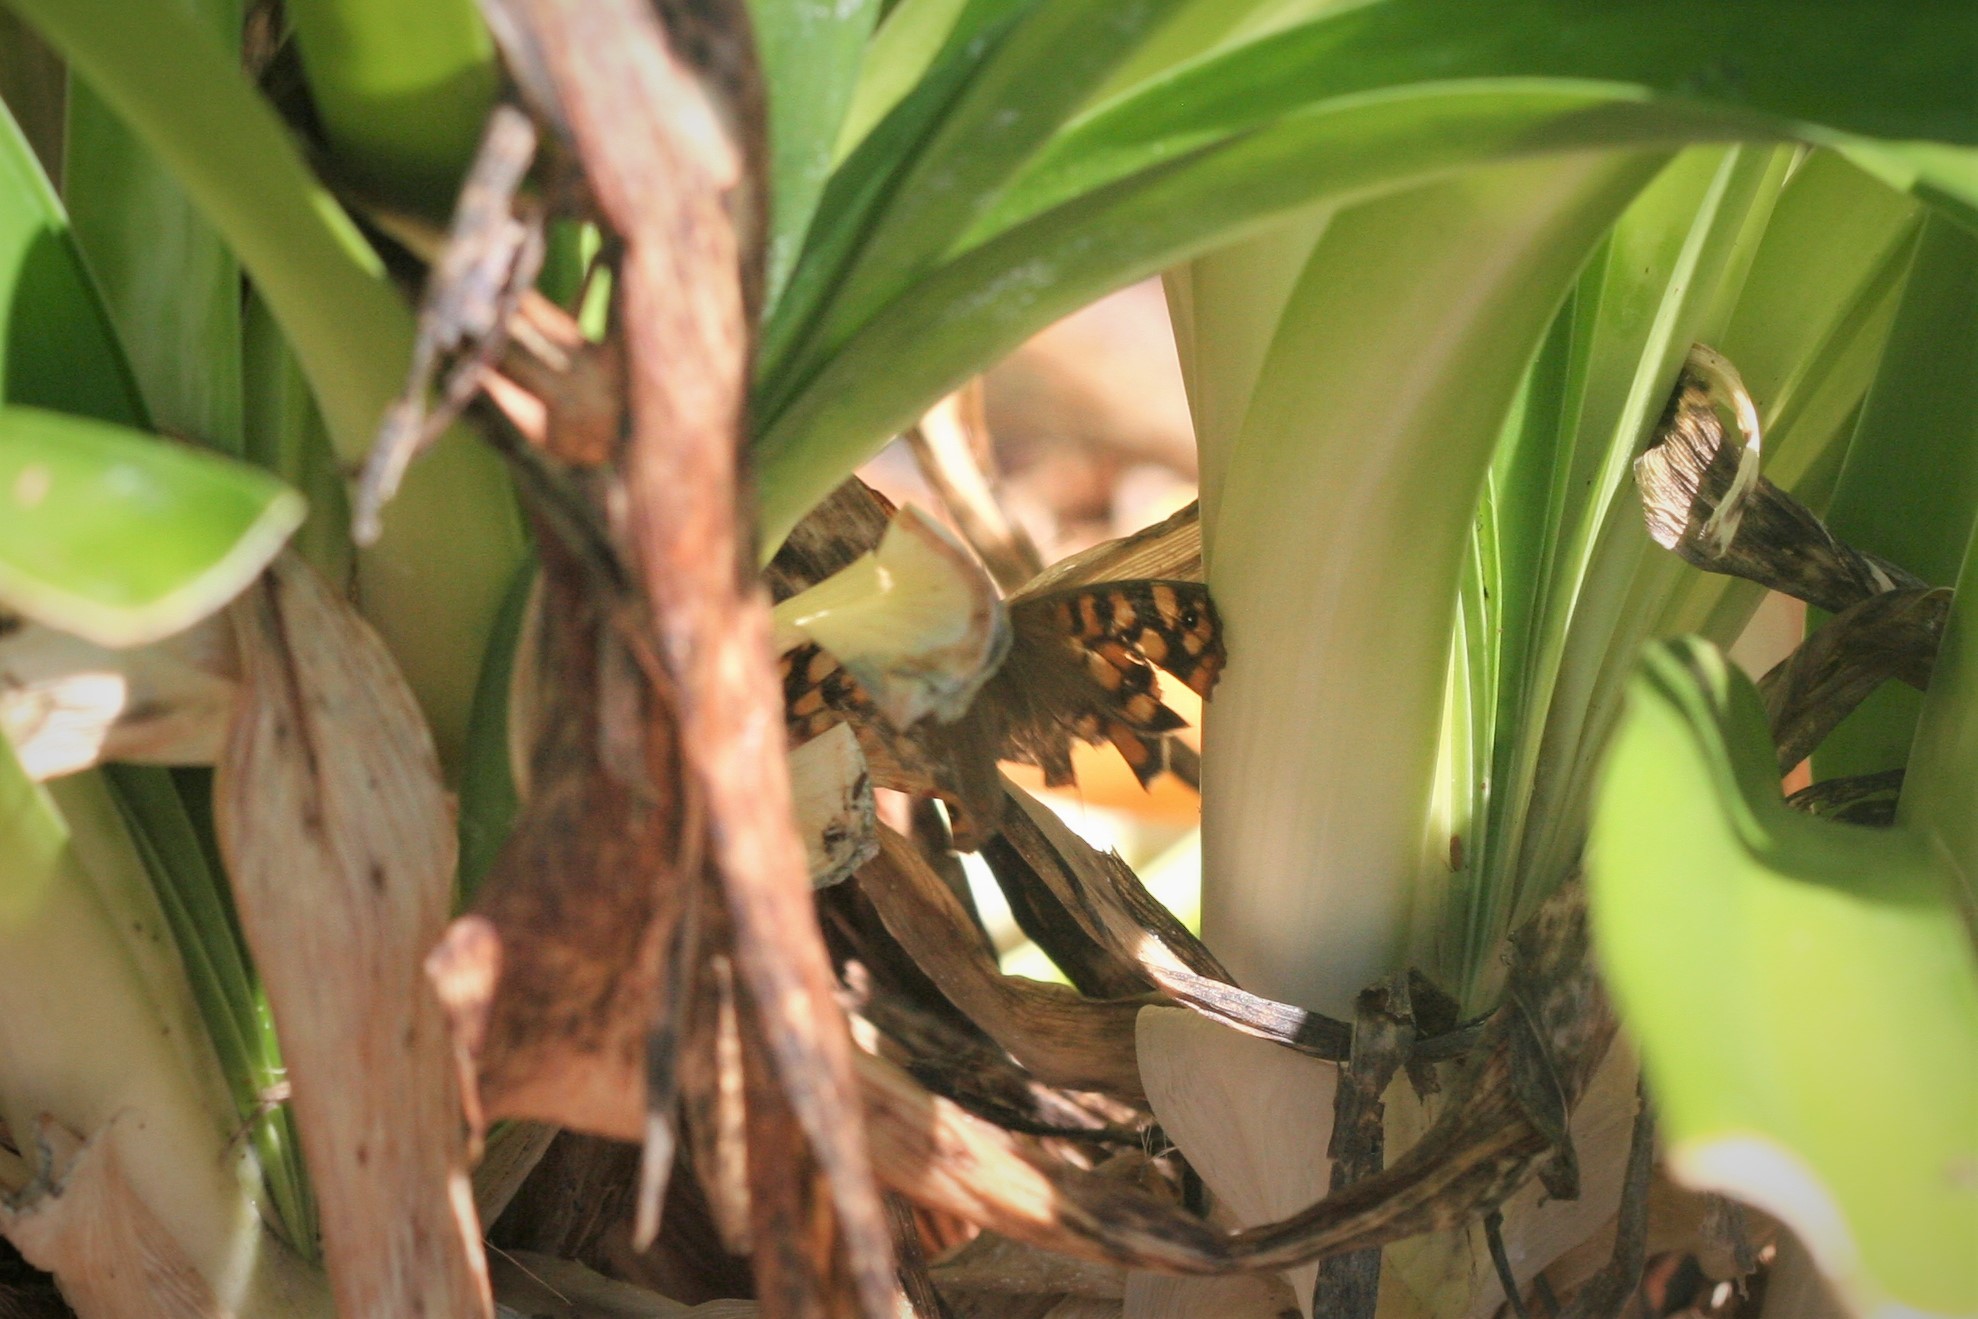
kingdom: Animalia
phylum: Arthropoda
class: Insecta
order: Lepidoptera
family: Nymphalidae
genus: Pararge
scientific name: Pararge aegeria
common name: Speckled wood
